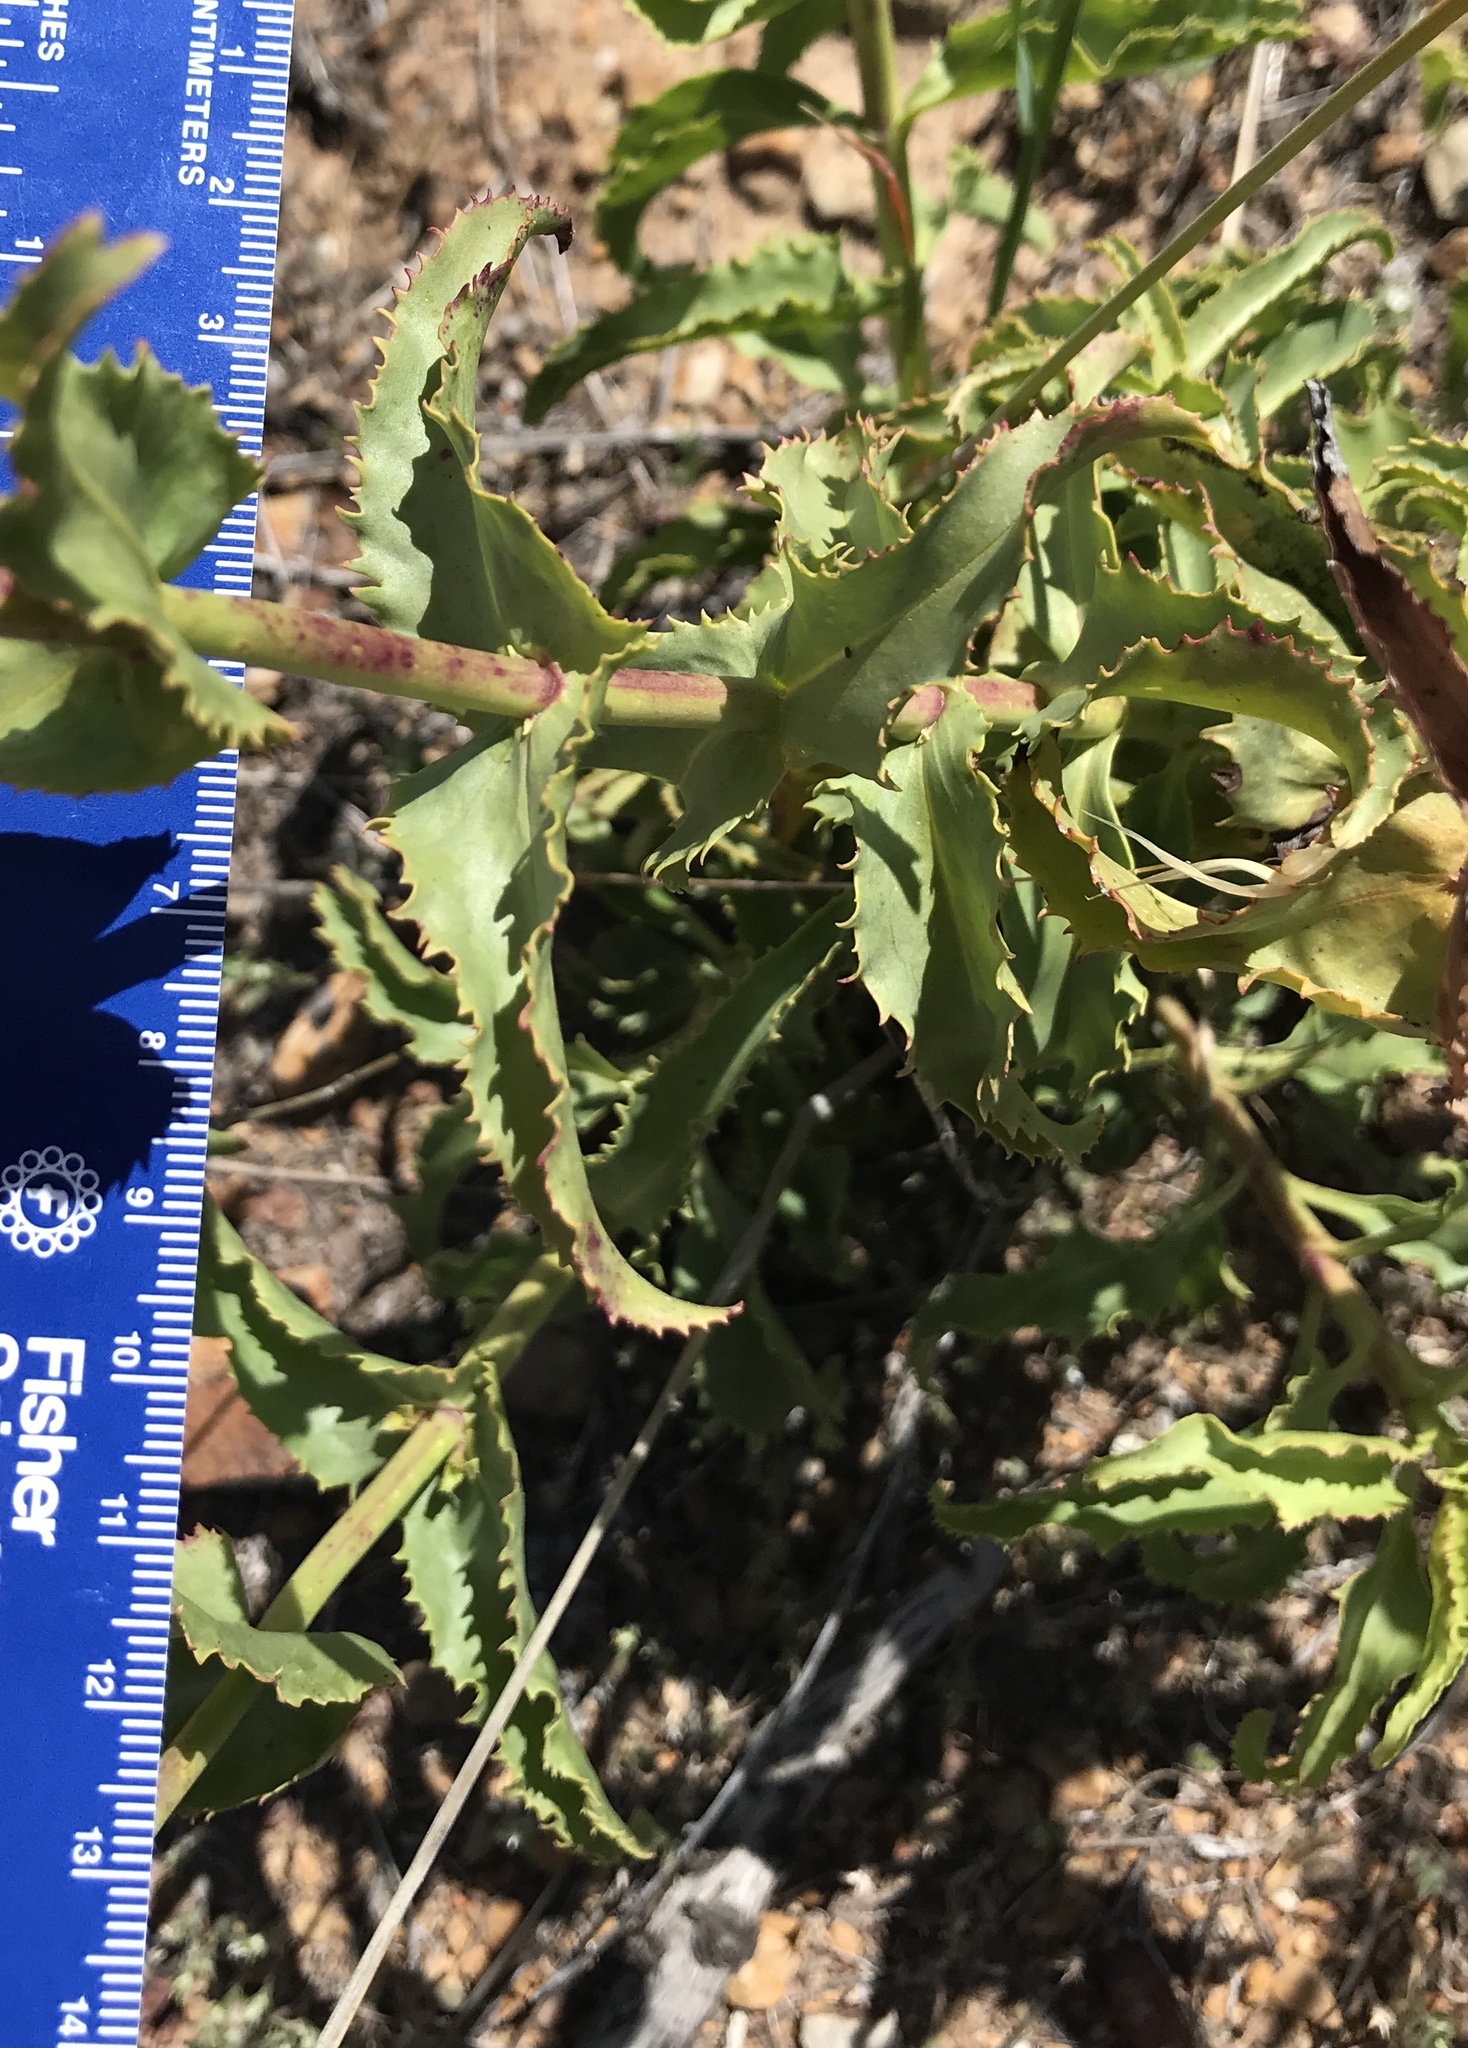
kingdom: Plantae
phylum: Tracheophyta
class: Magnoliopsida
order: Lamiales
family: Plantaginaceae
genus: Penstemon
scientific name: Penstemon spectabilis
